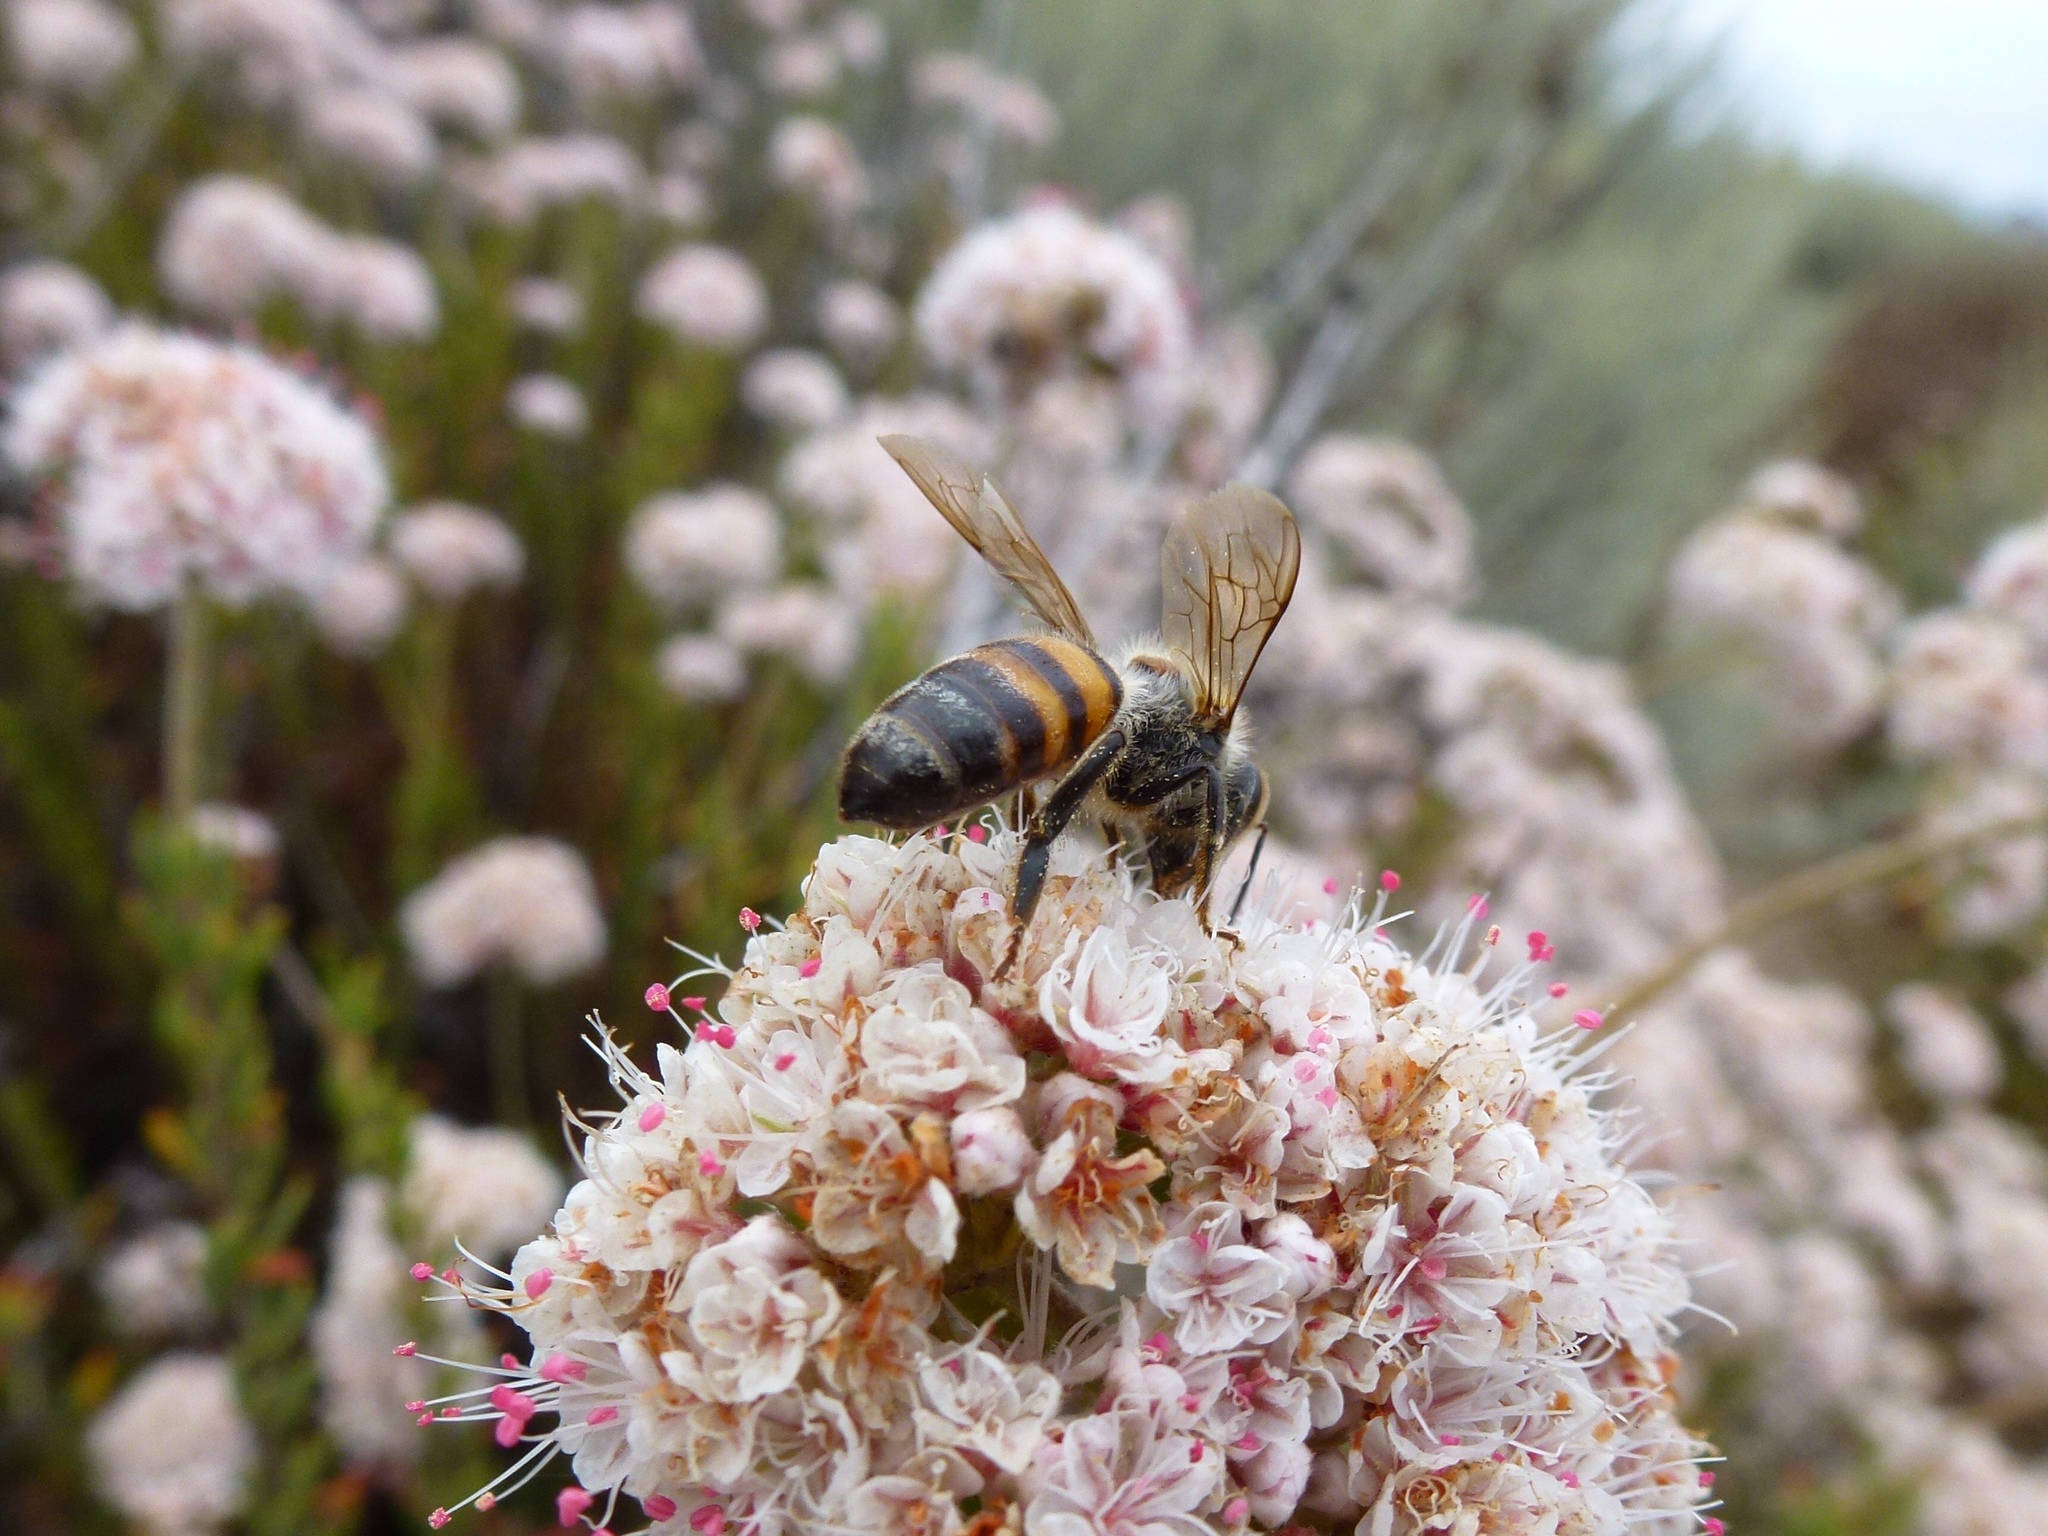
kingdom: Animalia
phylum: Arthropoda
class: Insecta
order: Hymenoptera
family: Apidae
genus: Apis
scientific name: Apis mellifera
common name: Honey bee
